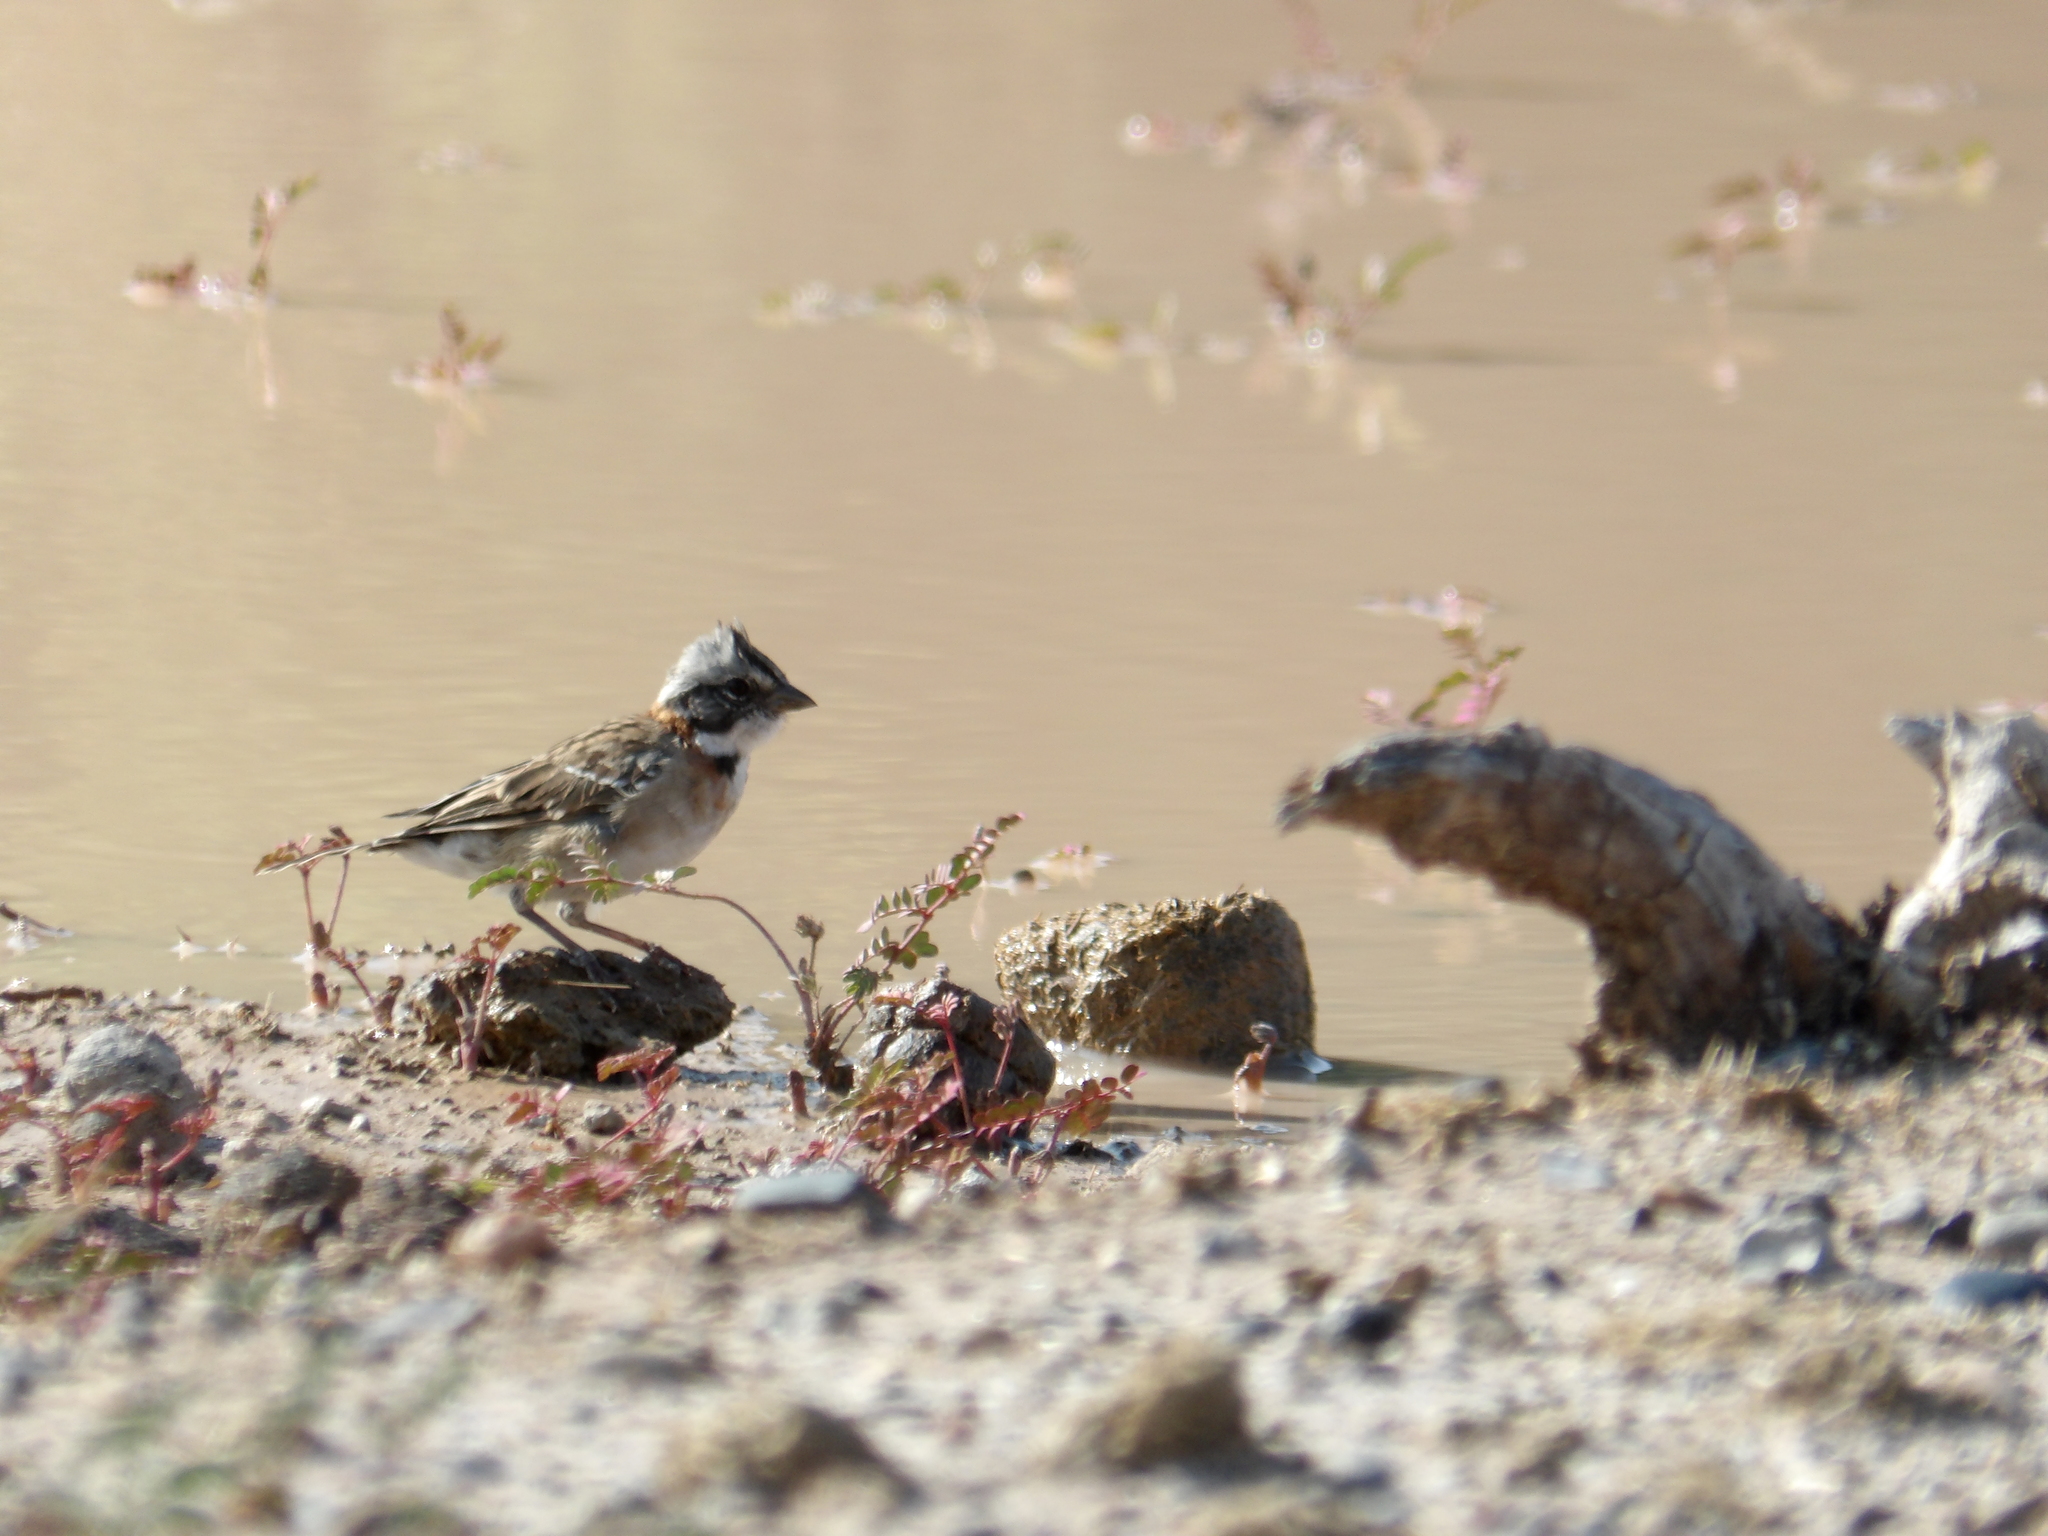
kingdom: Animalia
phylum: Chordata
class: Aves
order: Passeriformes
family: Passerellidae
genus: Zonotrichia
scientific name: Zonotrichia capensis
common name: Rufous-collared sparrow
